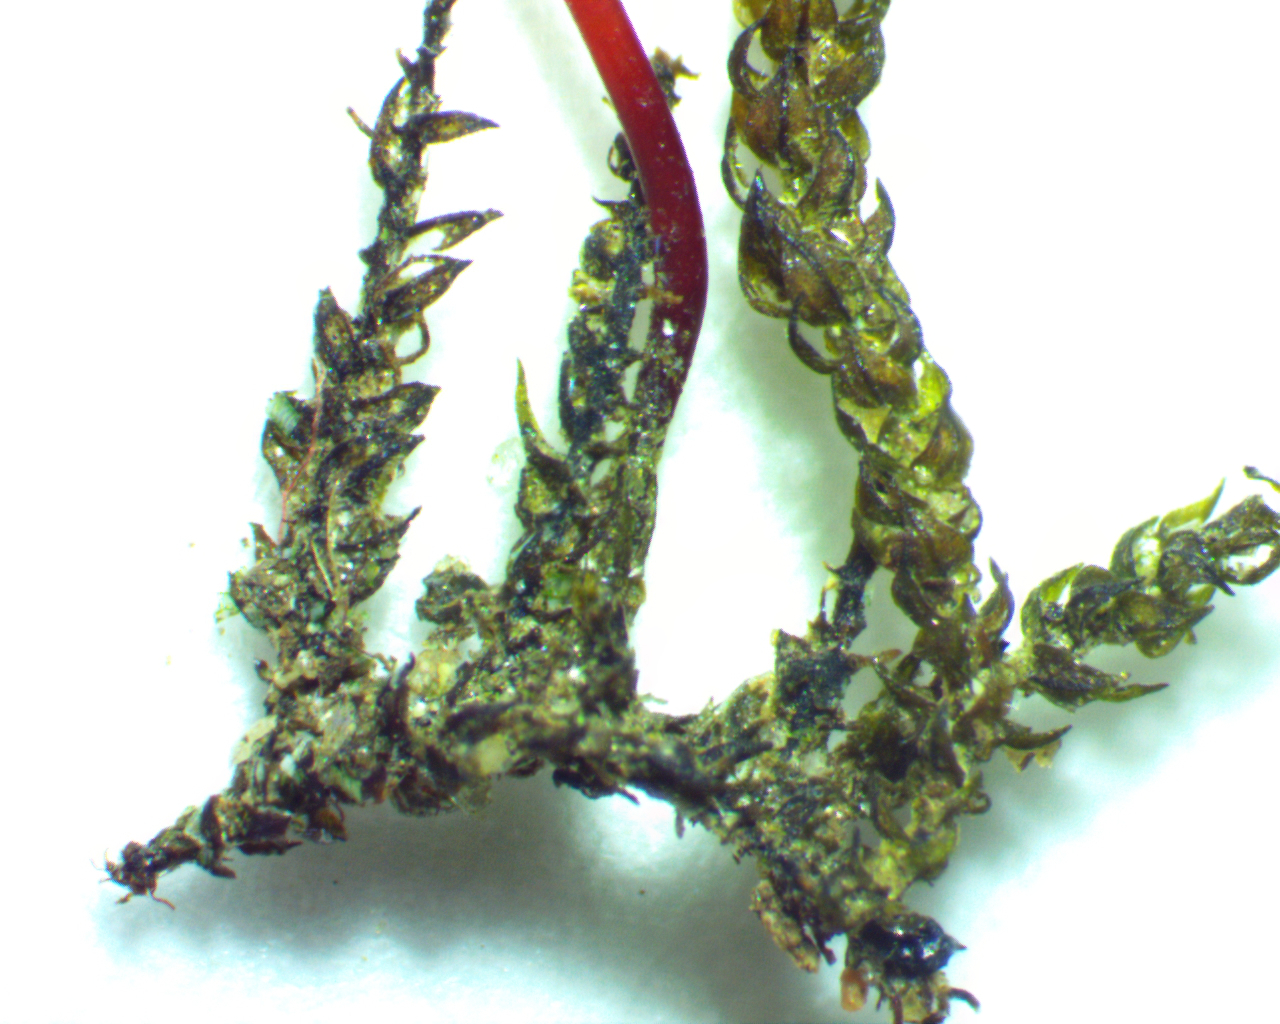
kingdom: Plantae
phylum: Bryophyta
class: Bryopsida
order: Hypnales
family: Leskeaceae
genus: Platylomella
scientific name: Platylomella lescurii
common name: Bordered brook moss
